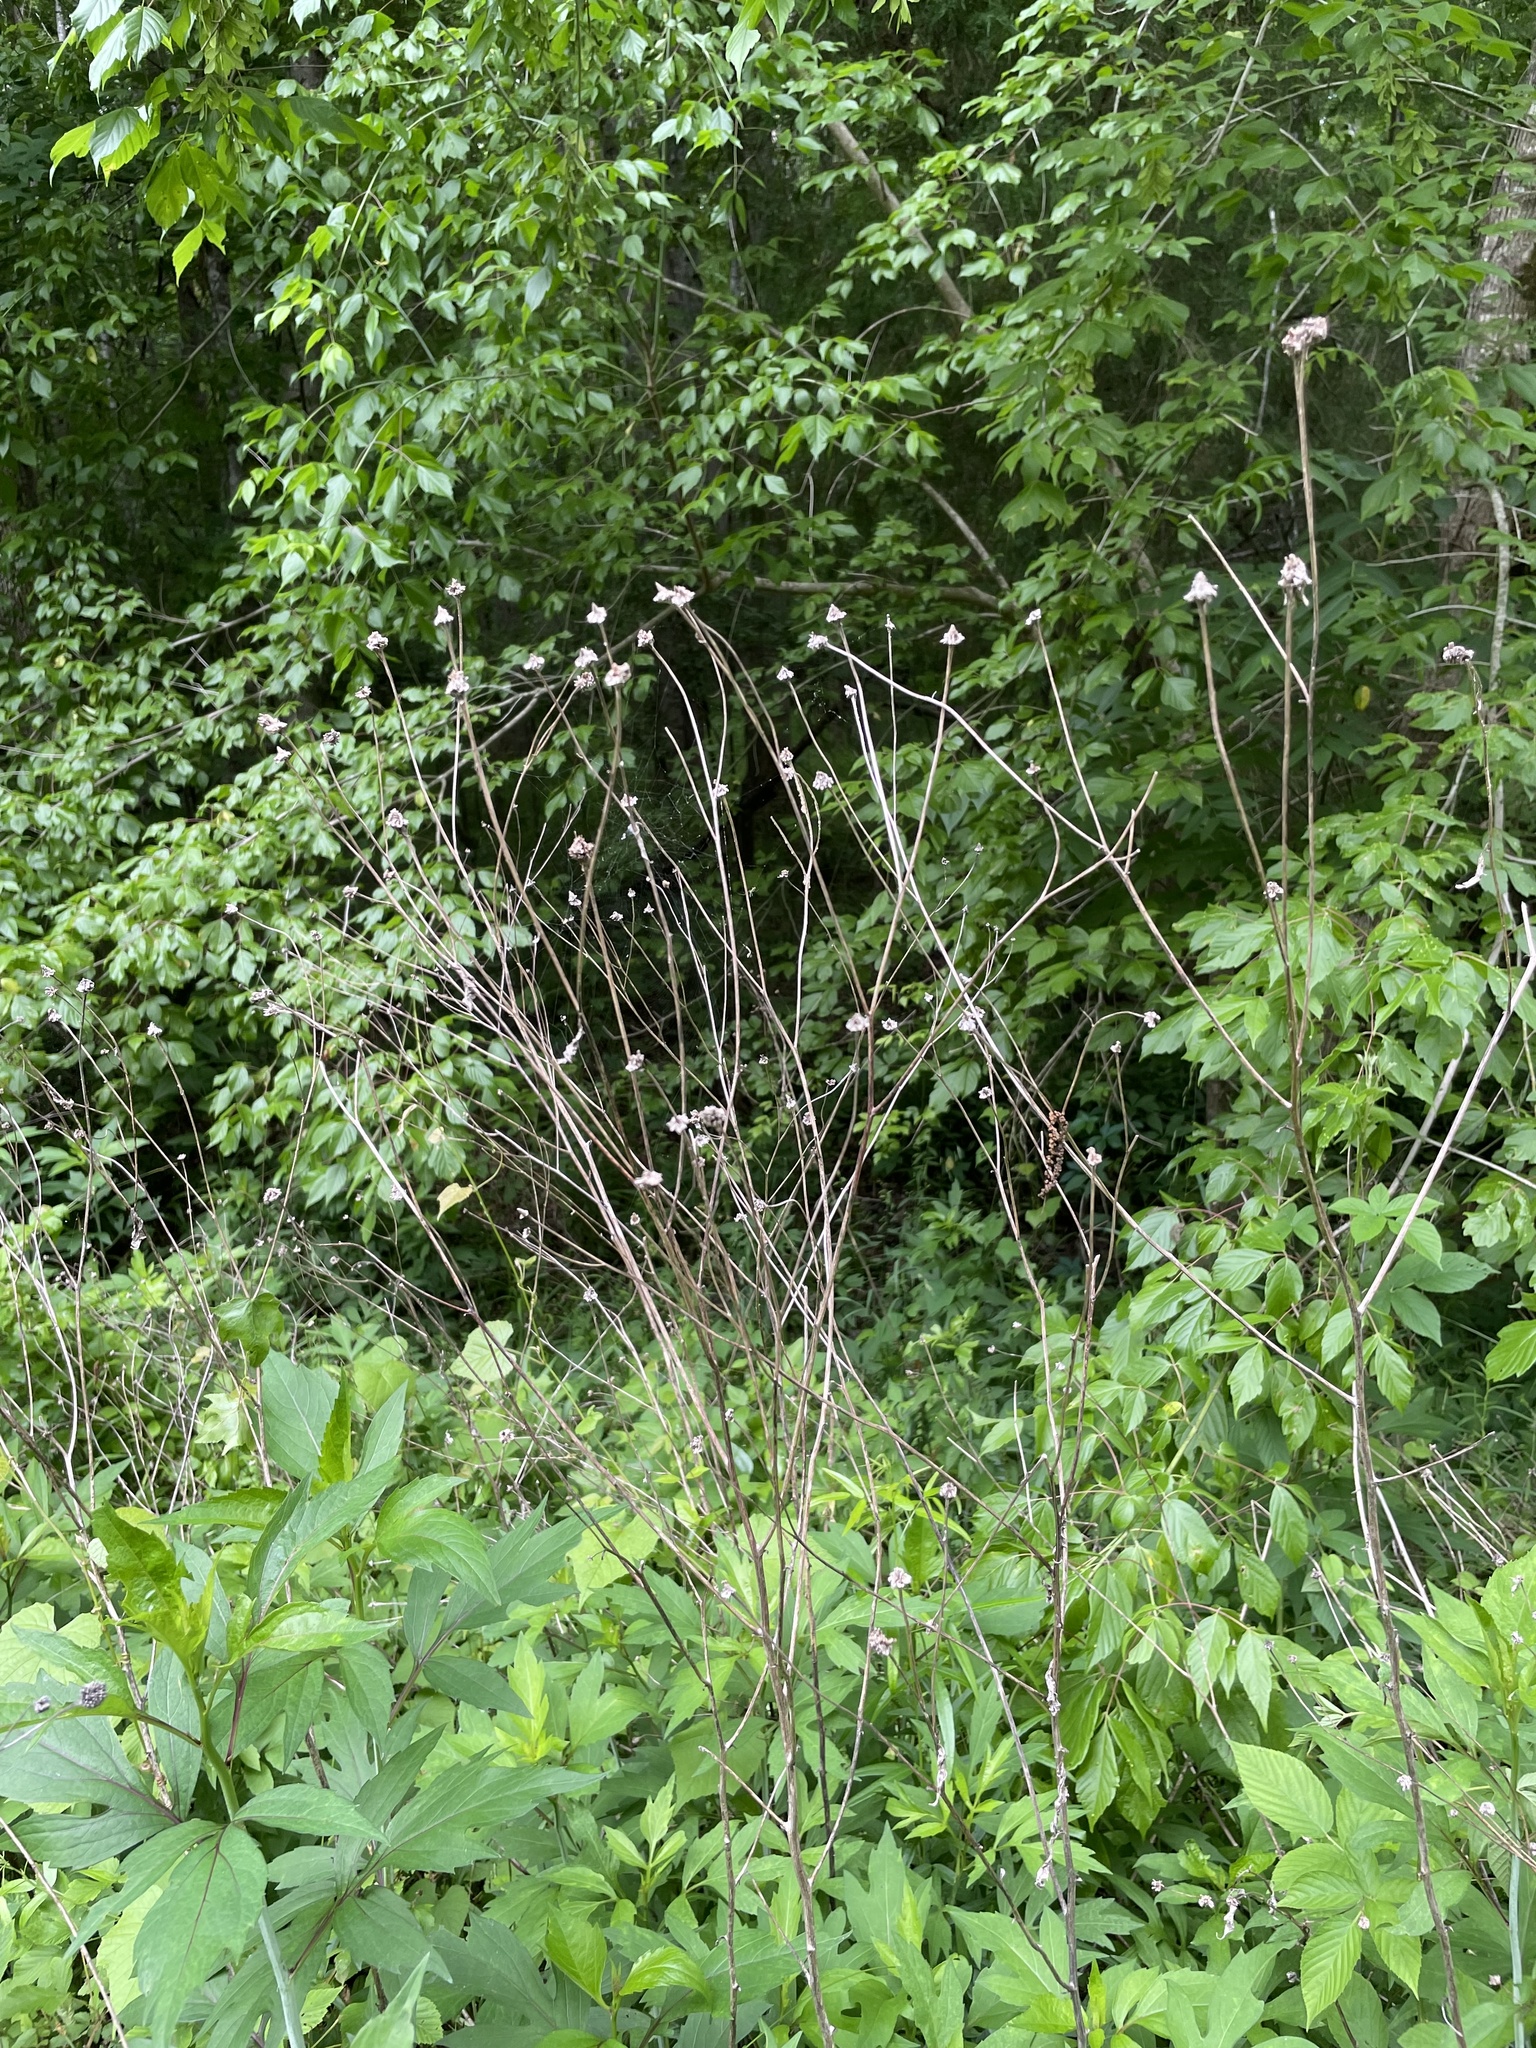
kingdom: Plantae
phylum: Tracheophyta
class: Magnoliopsida
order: Asterales
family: Asteraceae
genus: Rudbeckia
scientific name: Rudbeckia laciniata
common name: Coneflower
